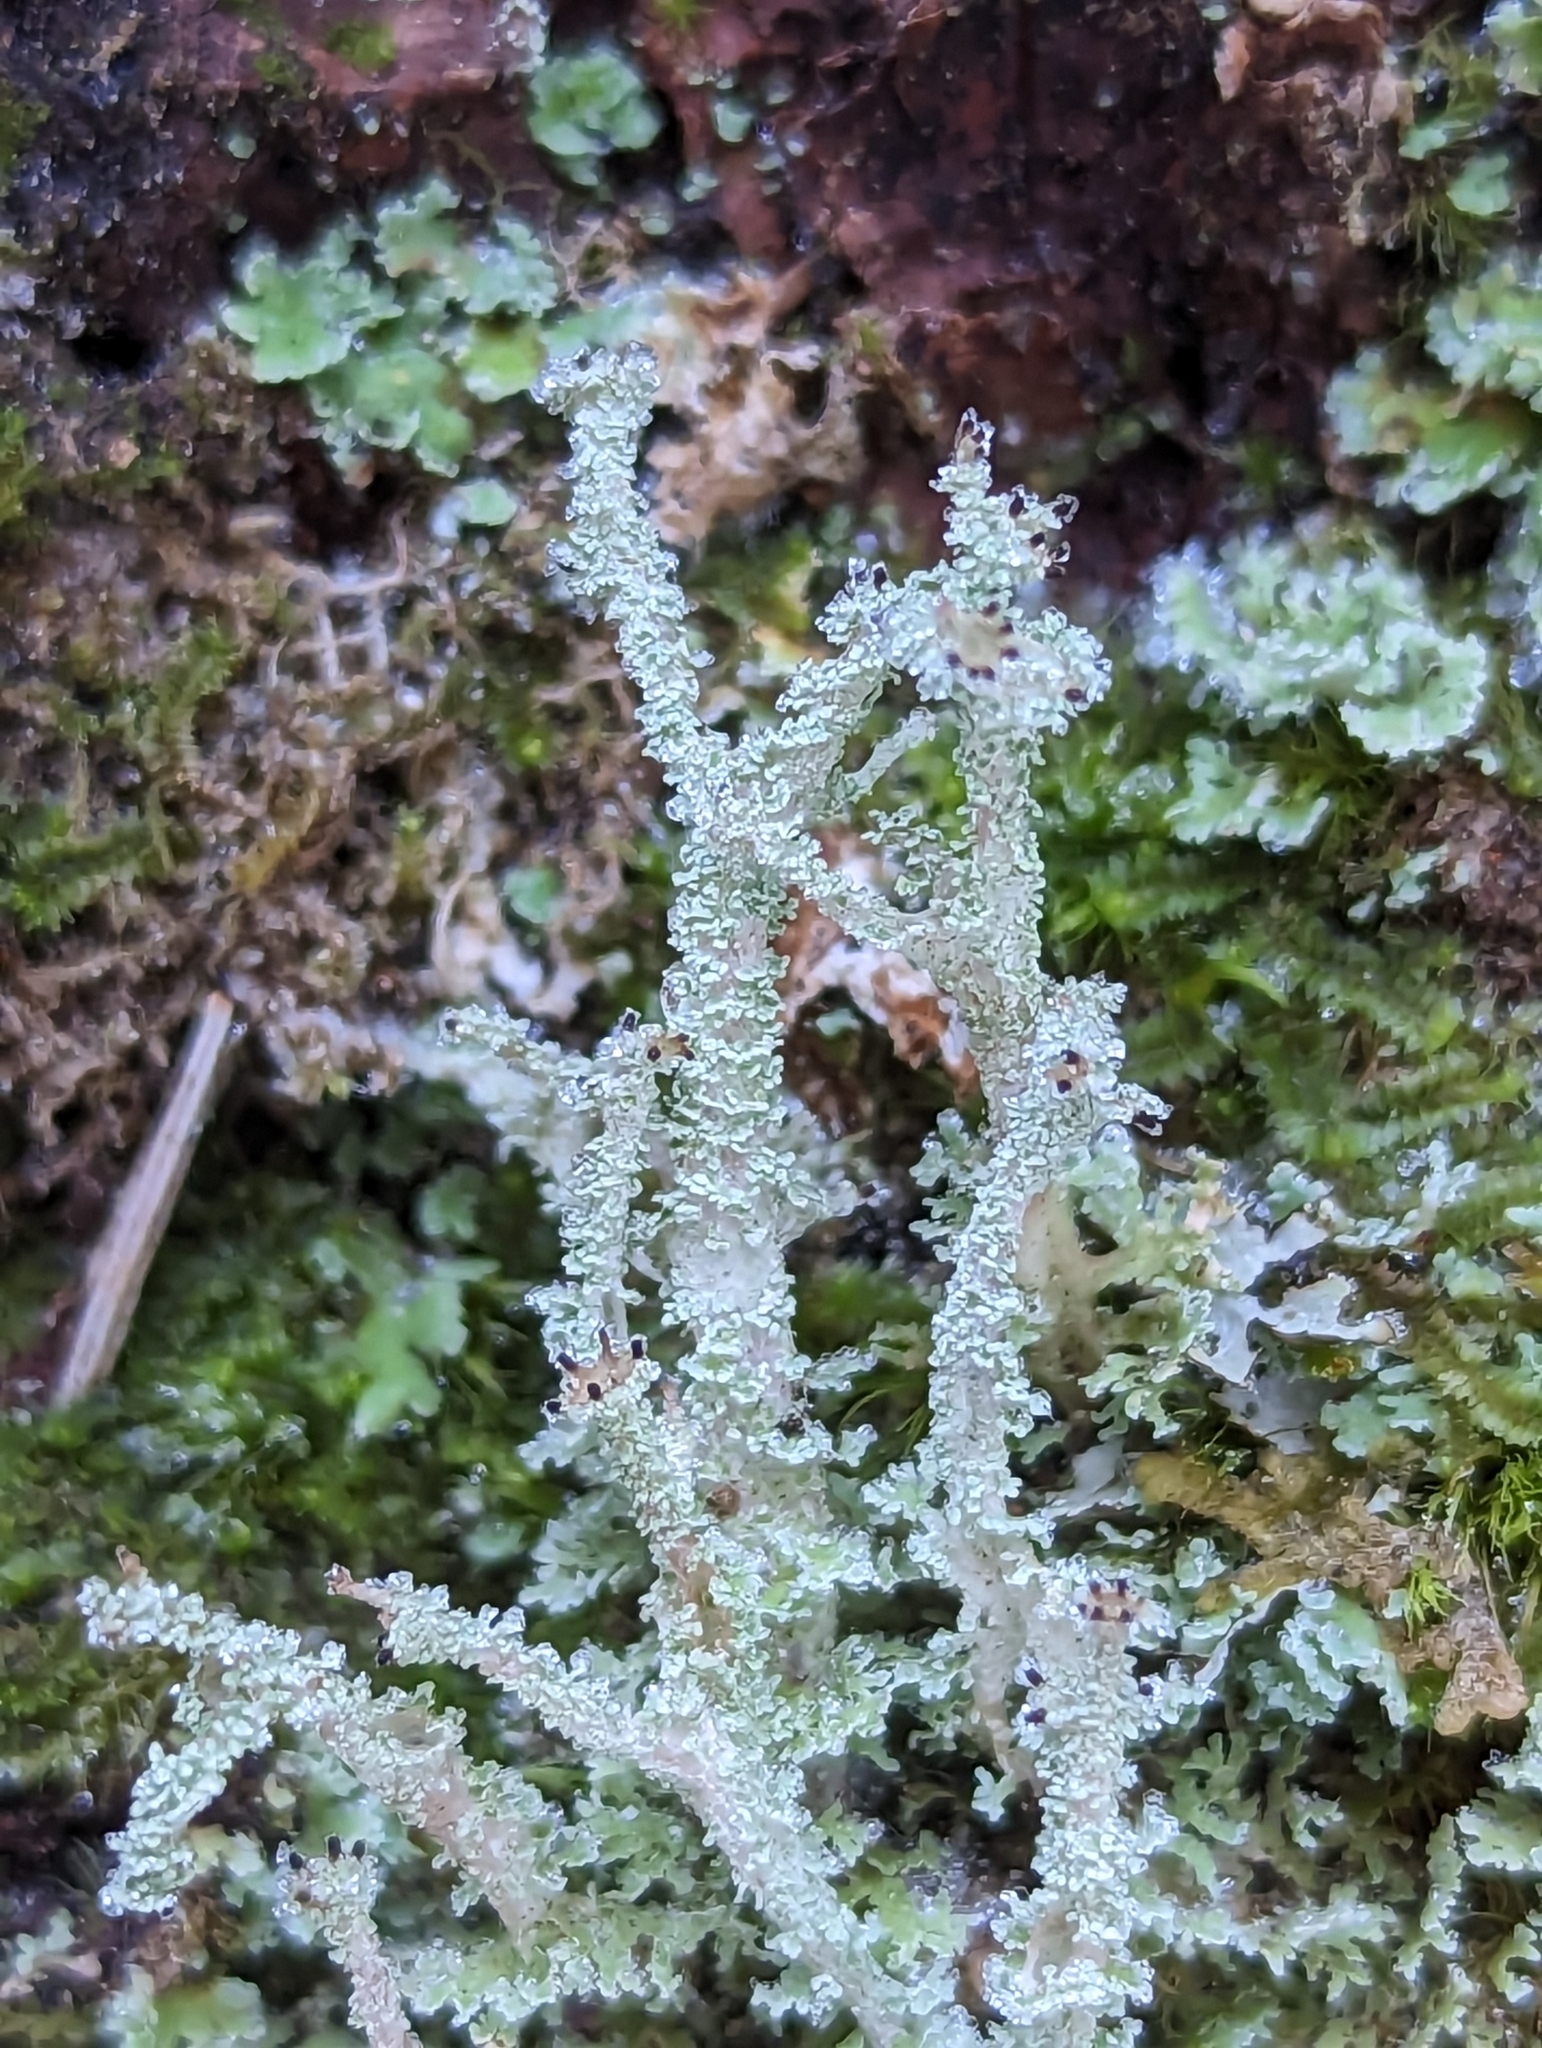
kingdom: Fungi
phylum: Ascomycota
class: Lecanoromycetes
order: Lecanorales
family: Cladoniaceae
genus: Cladonia
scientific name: Cladonia squamosa
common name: Dragon horn
